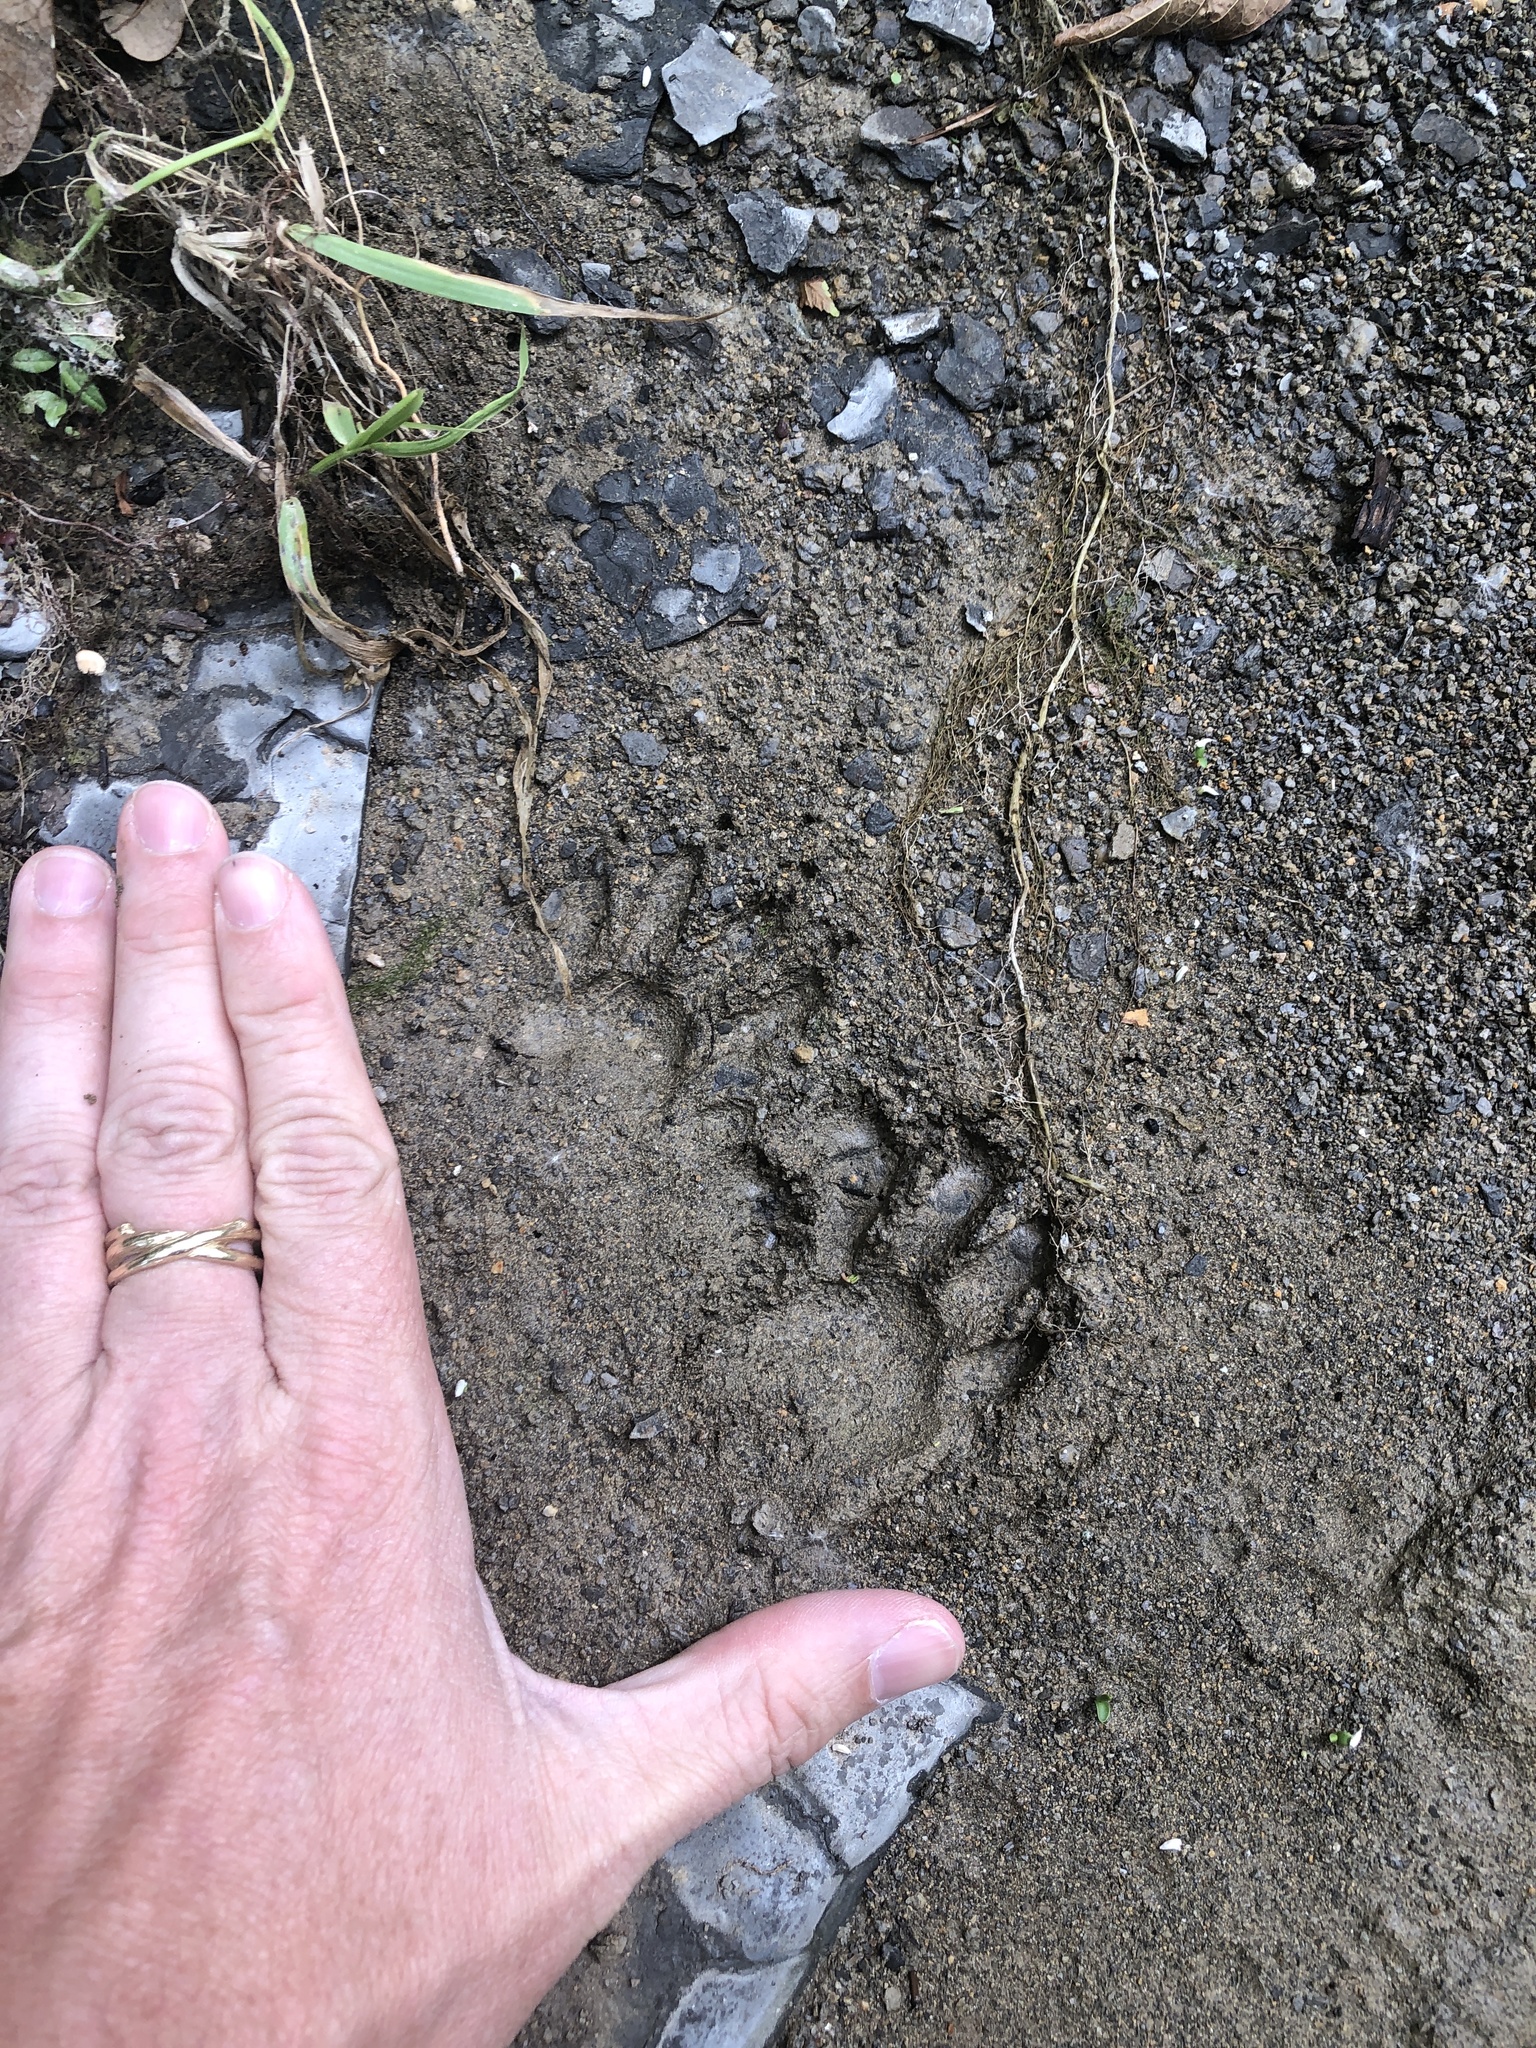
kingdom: Animalia
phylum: Chordata
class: Mammalia
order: Carnivora
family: Procyonidae
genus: Procyon
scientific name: Procyon lotor
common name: Raccoon
